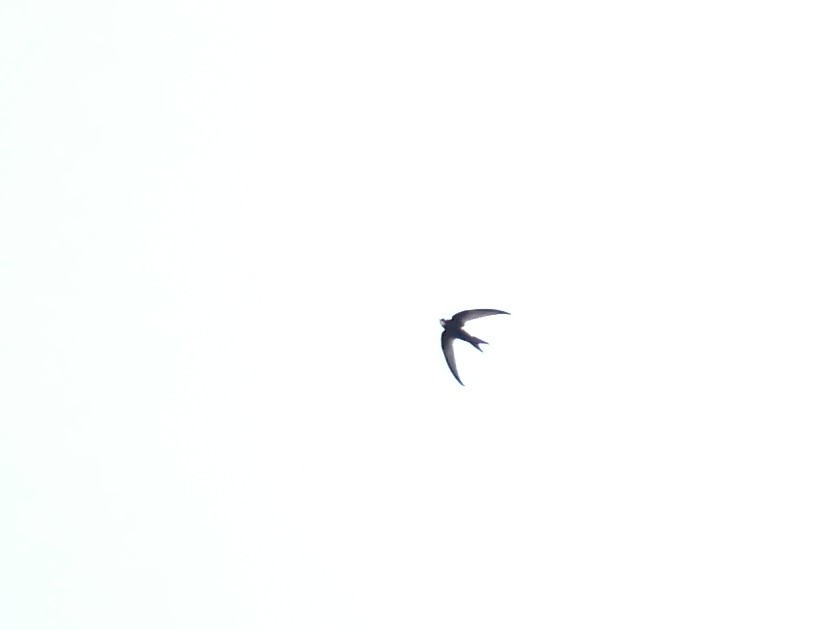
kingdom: Animalia
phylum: Chordata
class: Aves
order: Apodiformes
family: Apodidae
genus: Apus
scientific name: Apus apus
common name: Common swift
